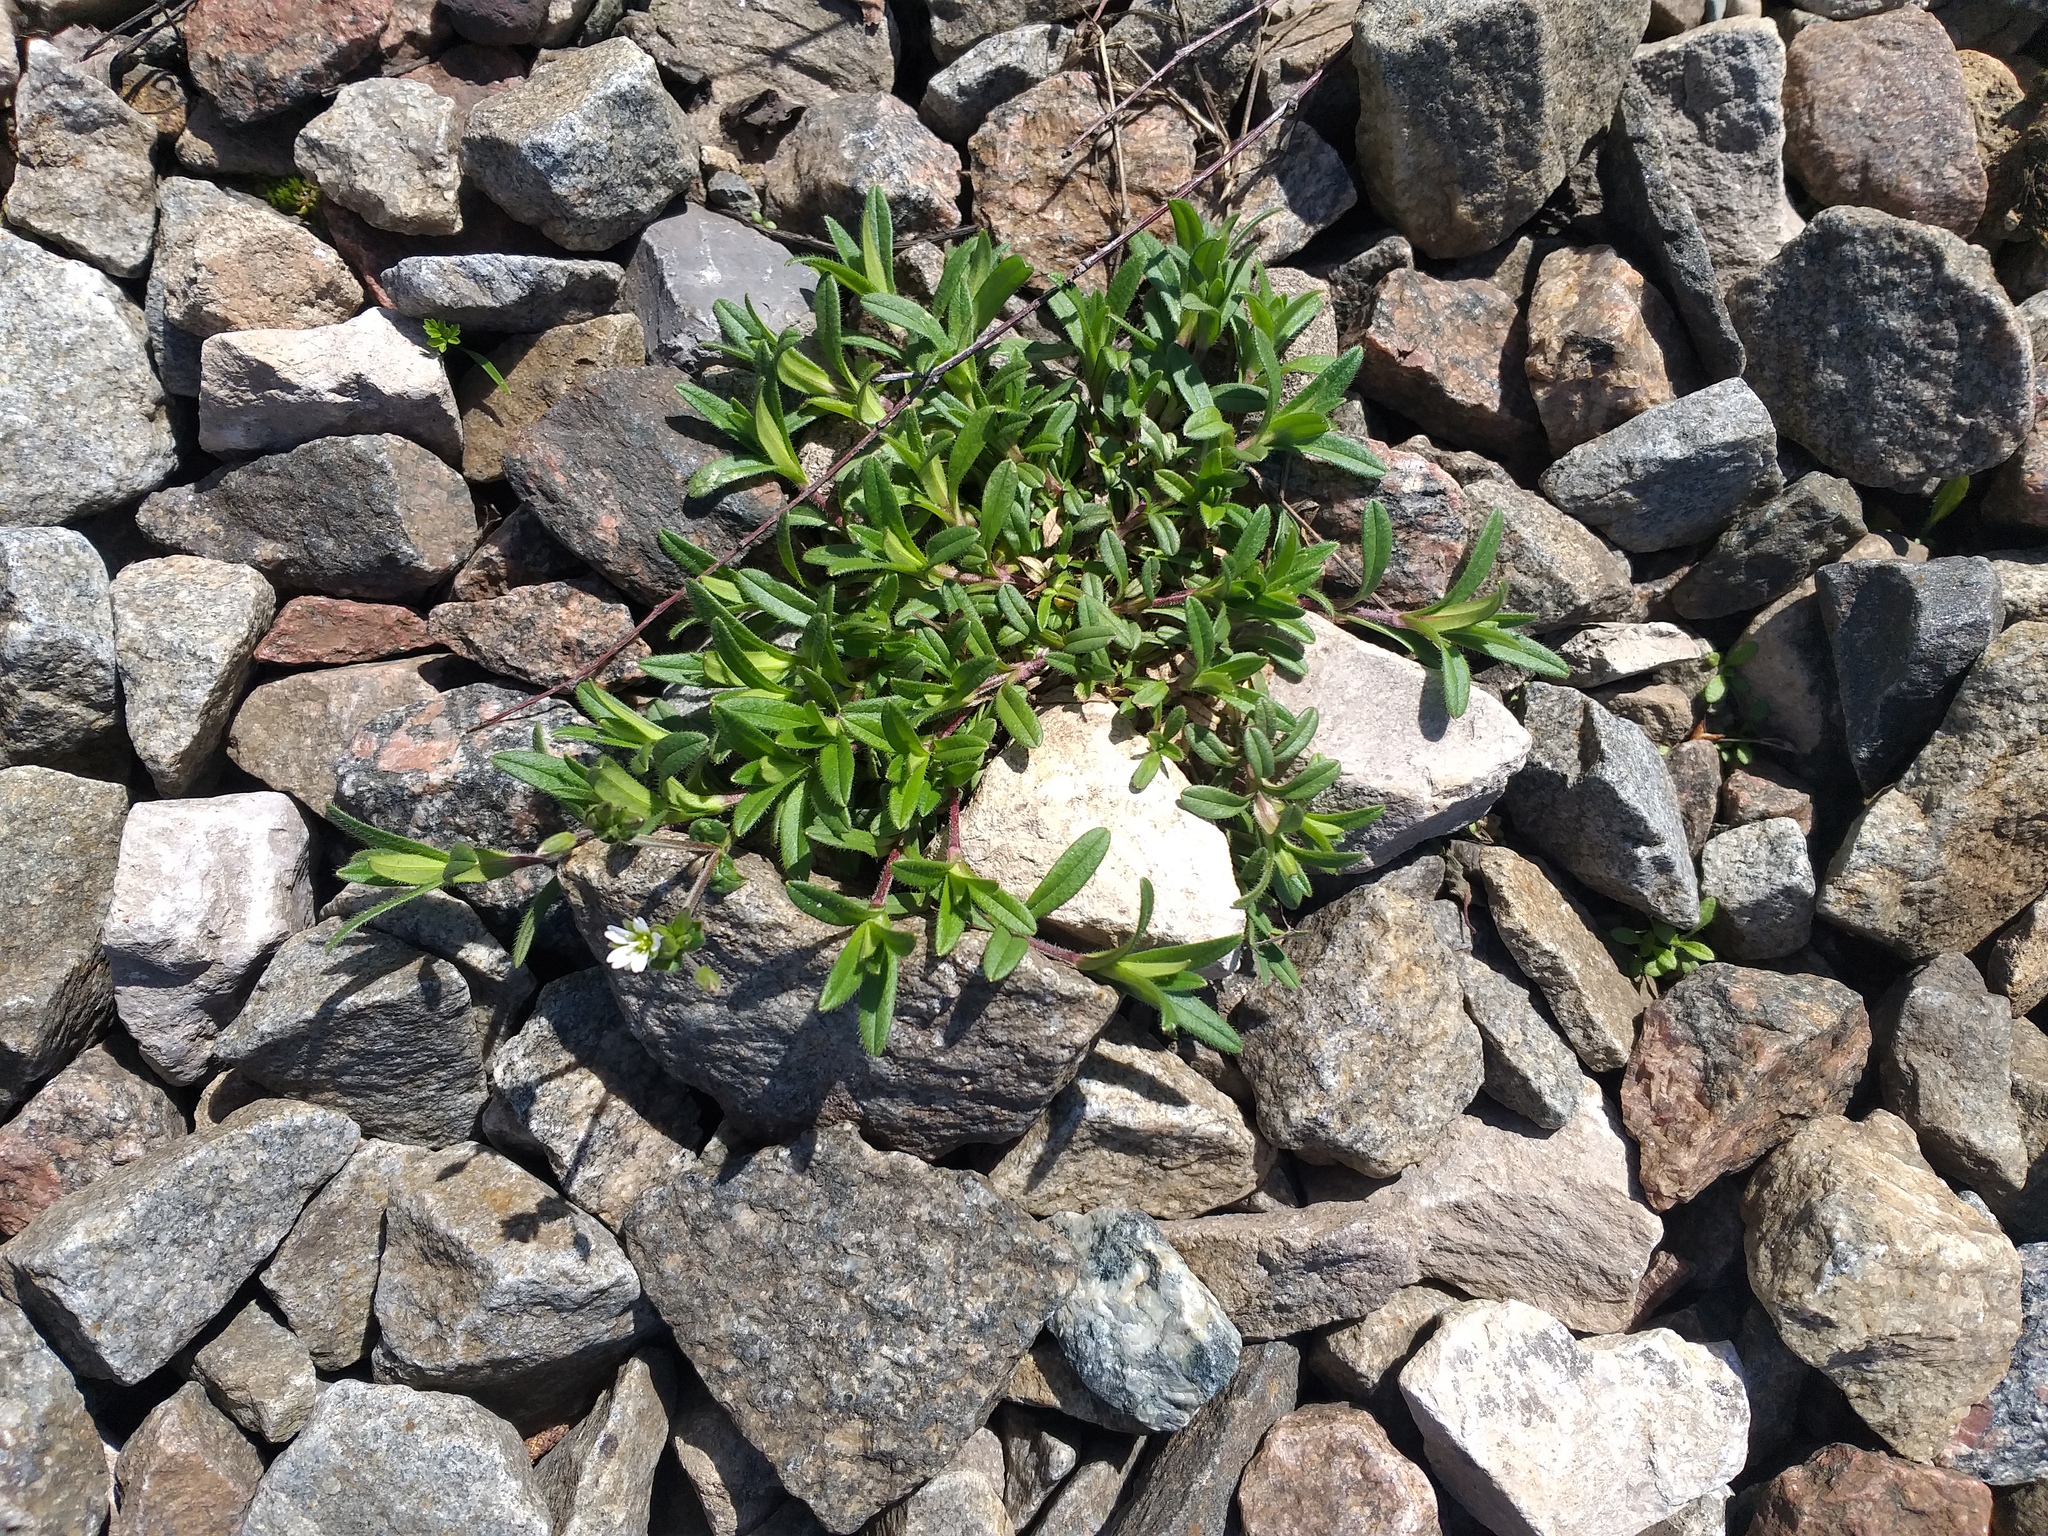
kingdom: Plantae
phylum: Tracheophyta
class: Magnoliopsida
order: Caryophyllales
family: Caryophyllaceae
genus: Cerastium
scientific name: Cerastium holosteoides
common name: Big chickweed
